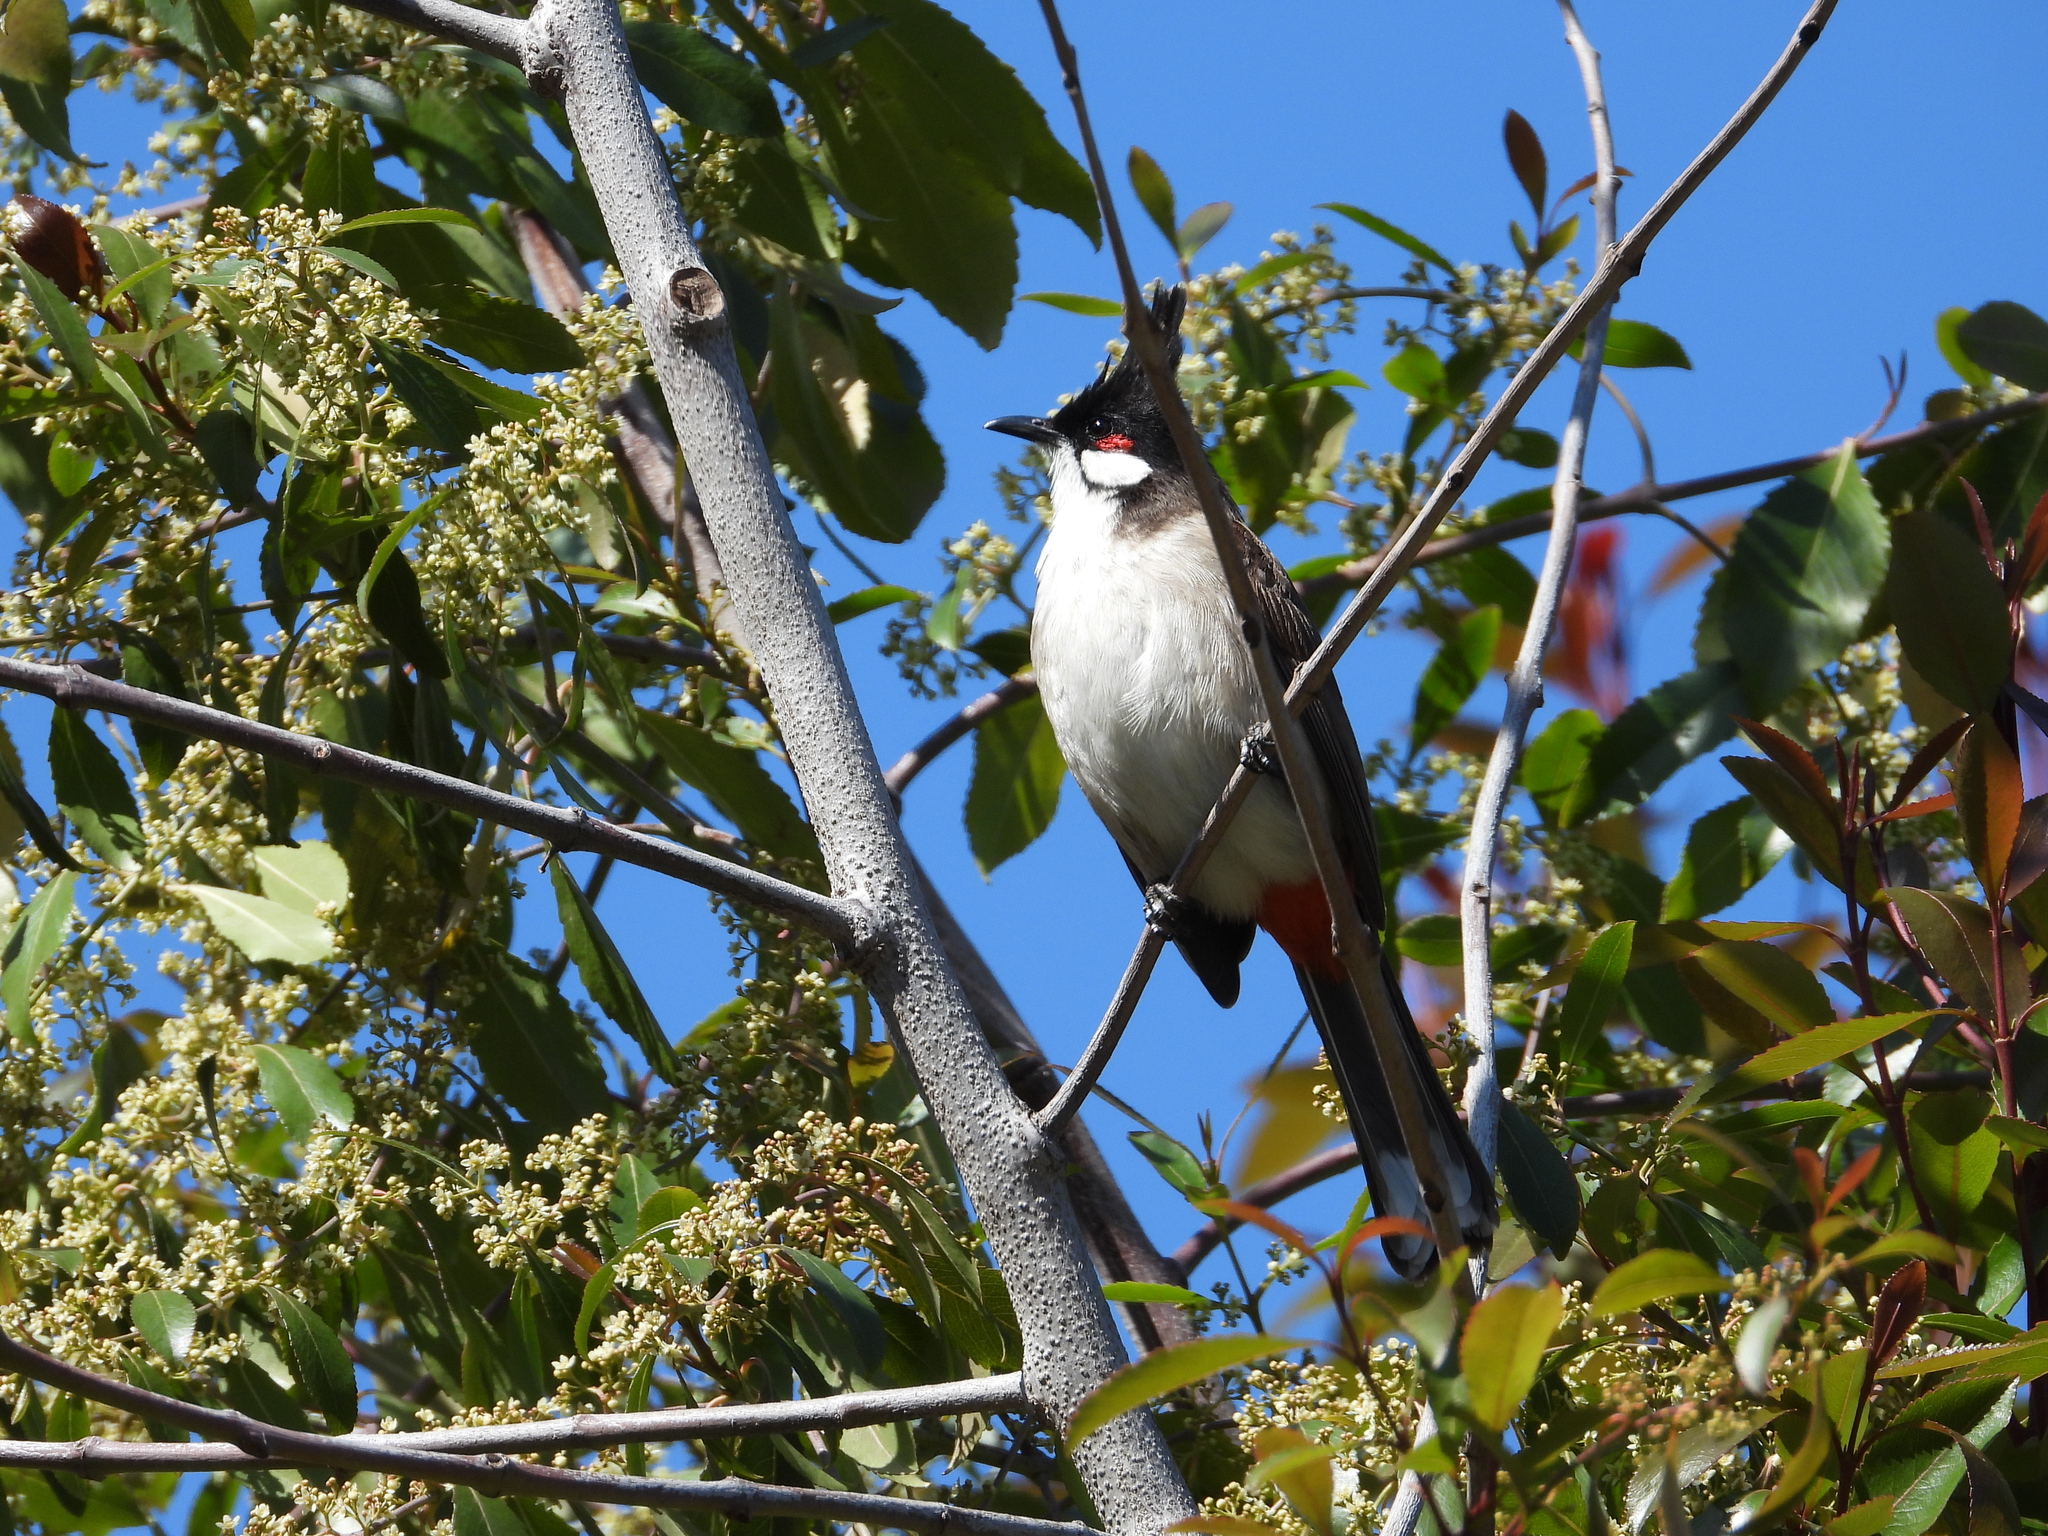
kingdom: Animalia
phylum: Chordata
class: Aves
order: Passeriformes
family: Pycnonotidae
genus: Pycnonotus
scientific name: Pycnonotus jocosus
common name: Red-whiskered bulbul
